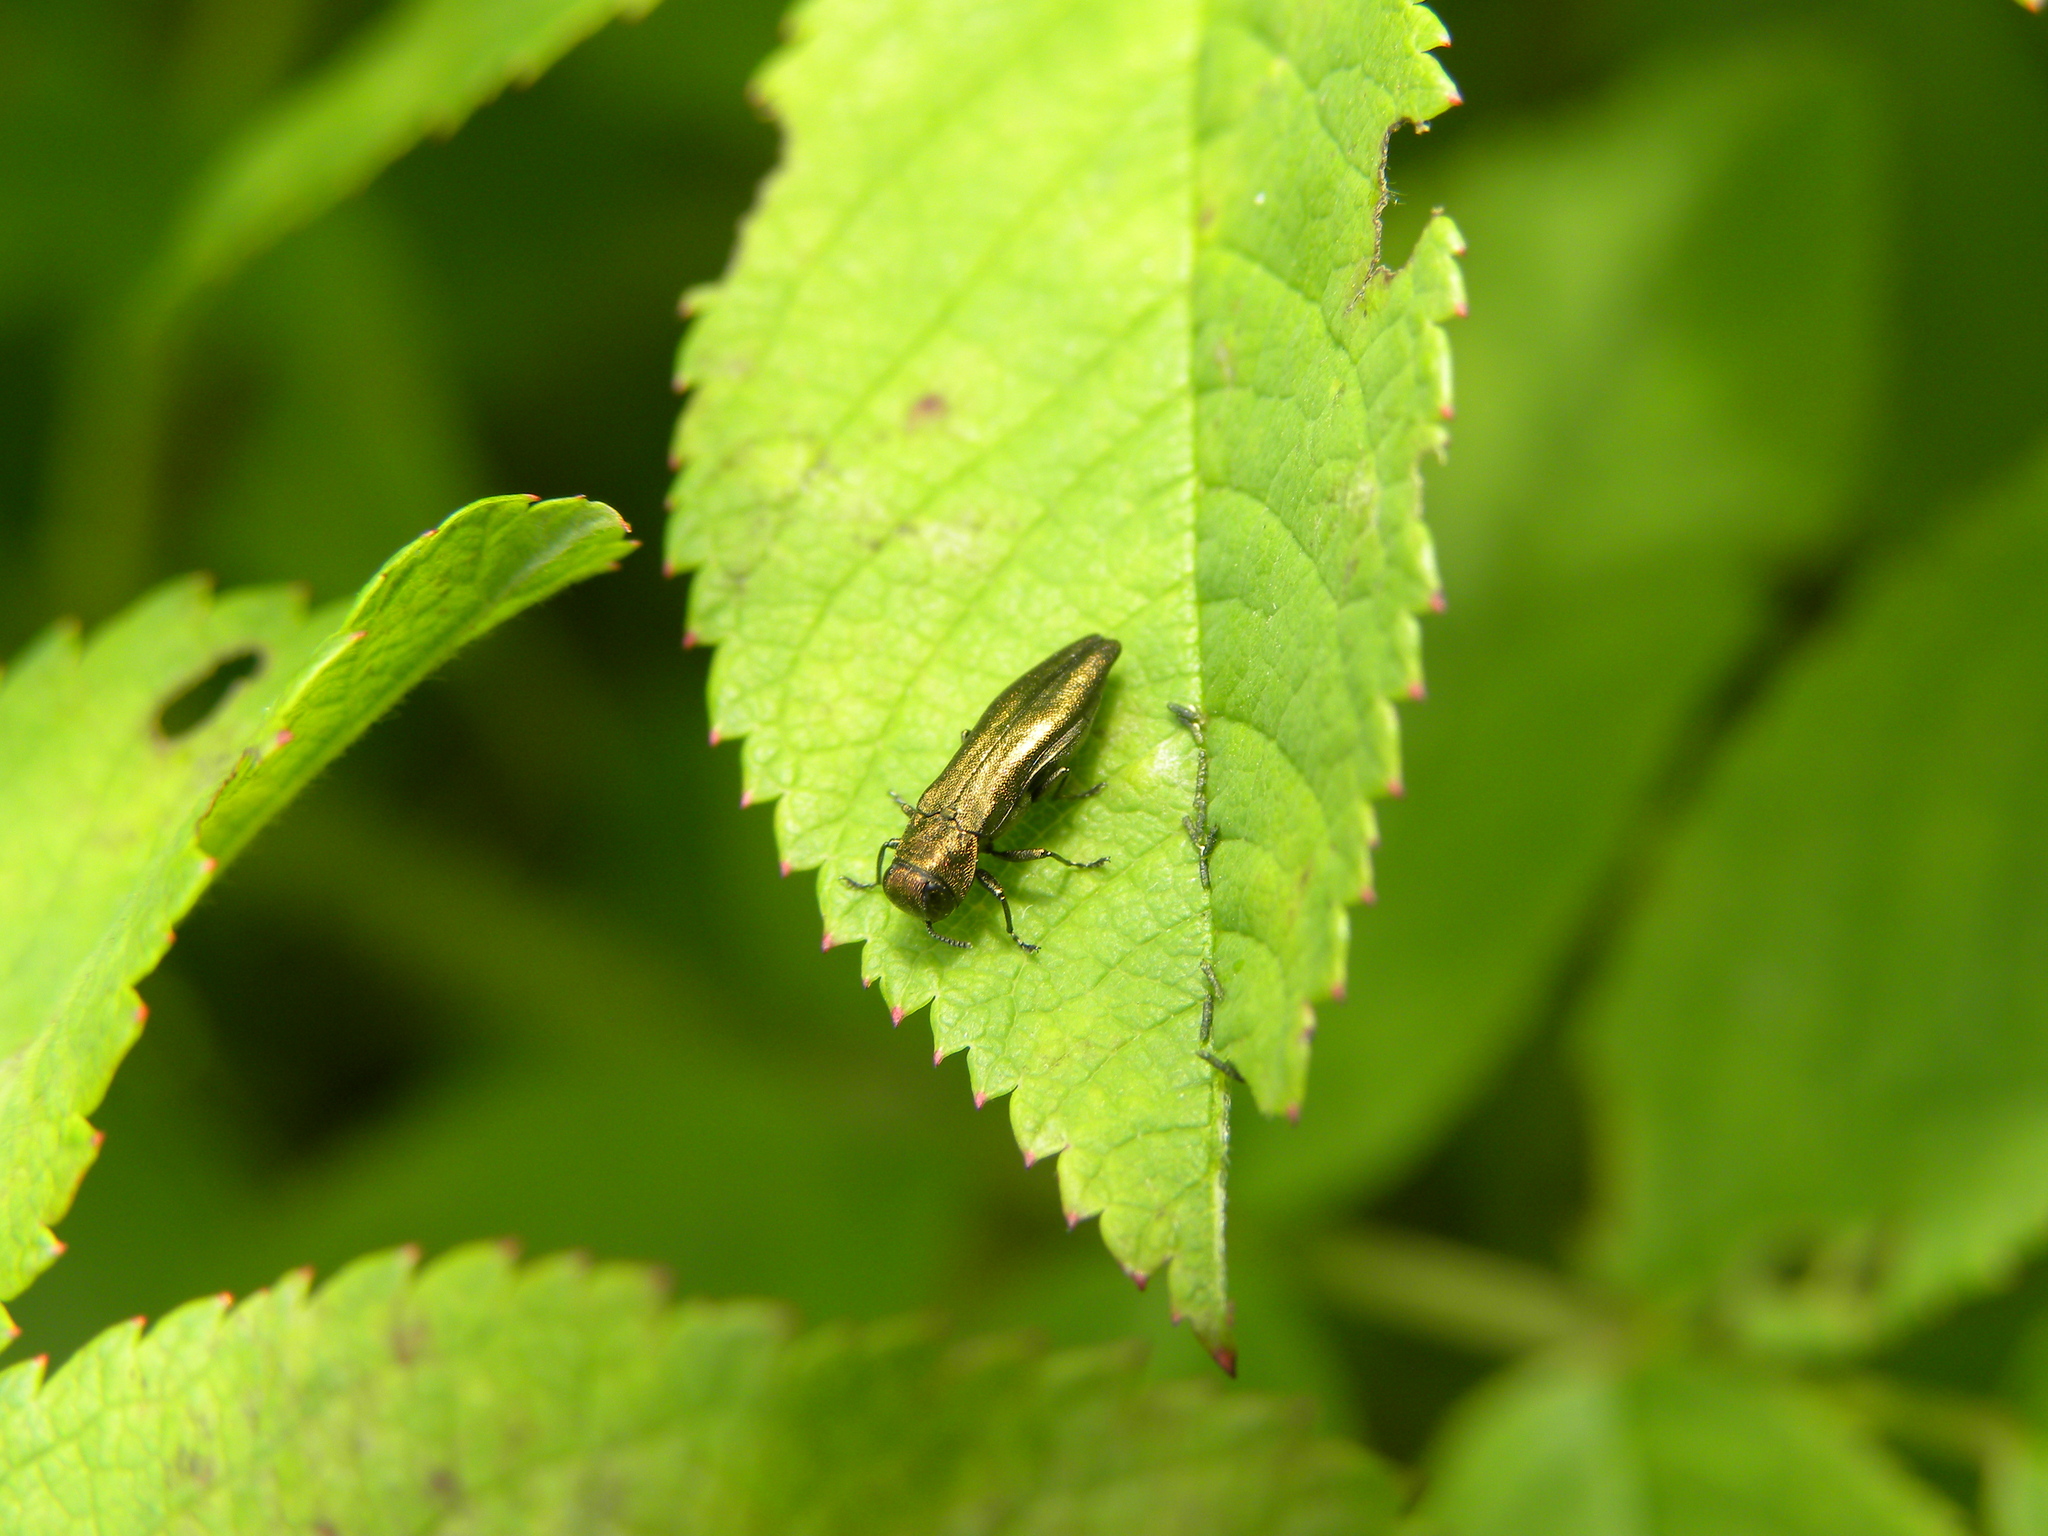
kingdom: Animalia
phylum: Arthropoda
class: Insecta
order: Coleoptera
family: Buprestidae
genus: Agrilus
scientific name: Agrilus cuprescens
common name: Rose stem girdler
